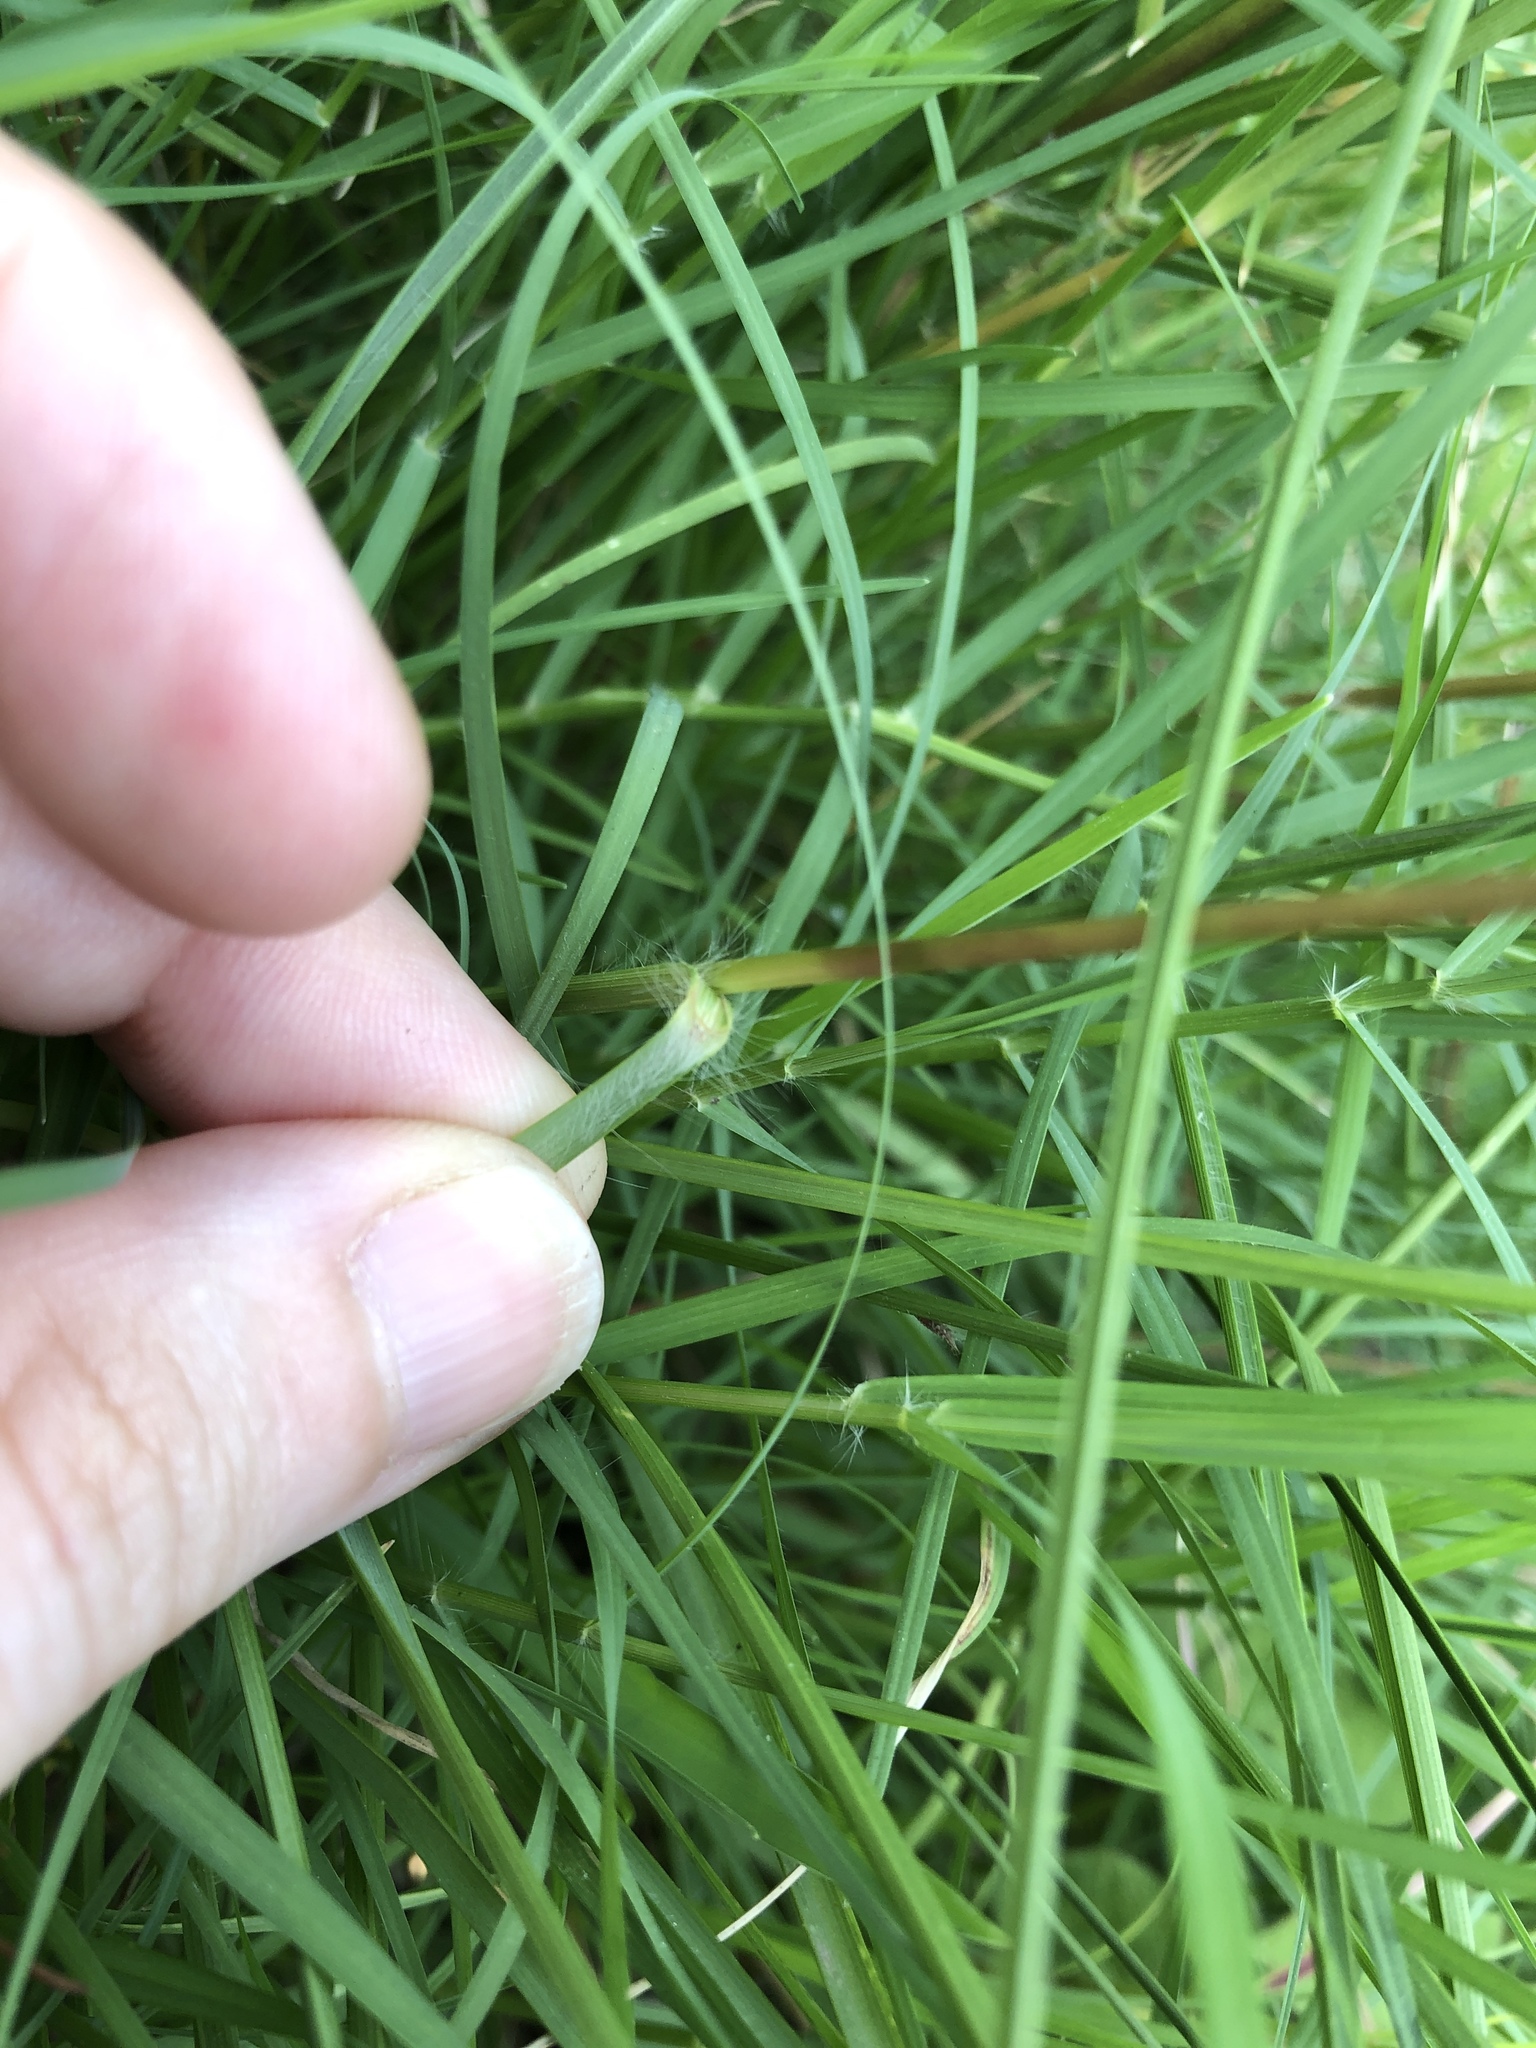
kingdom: Plantae
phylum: Tracheophyta
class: Liliopsida
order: Poales
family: Poaceae
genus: Elionurus
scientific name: Elionurus tripsacoides
